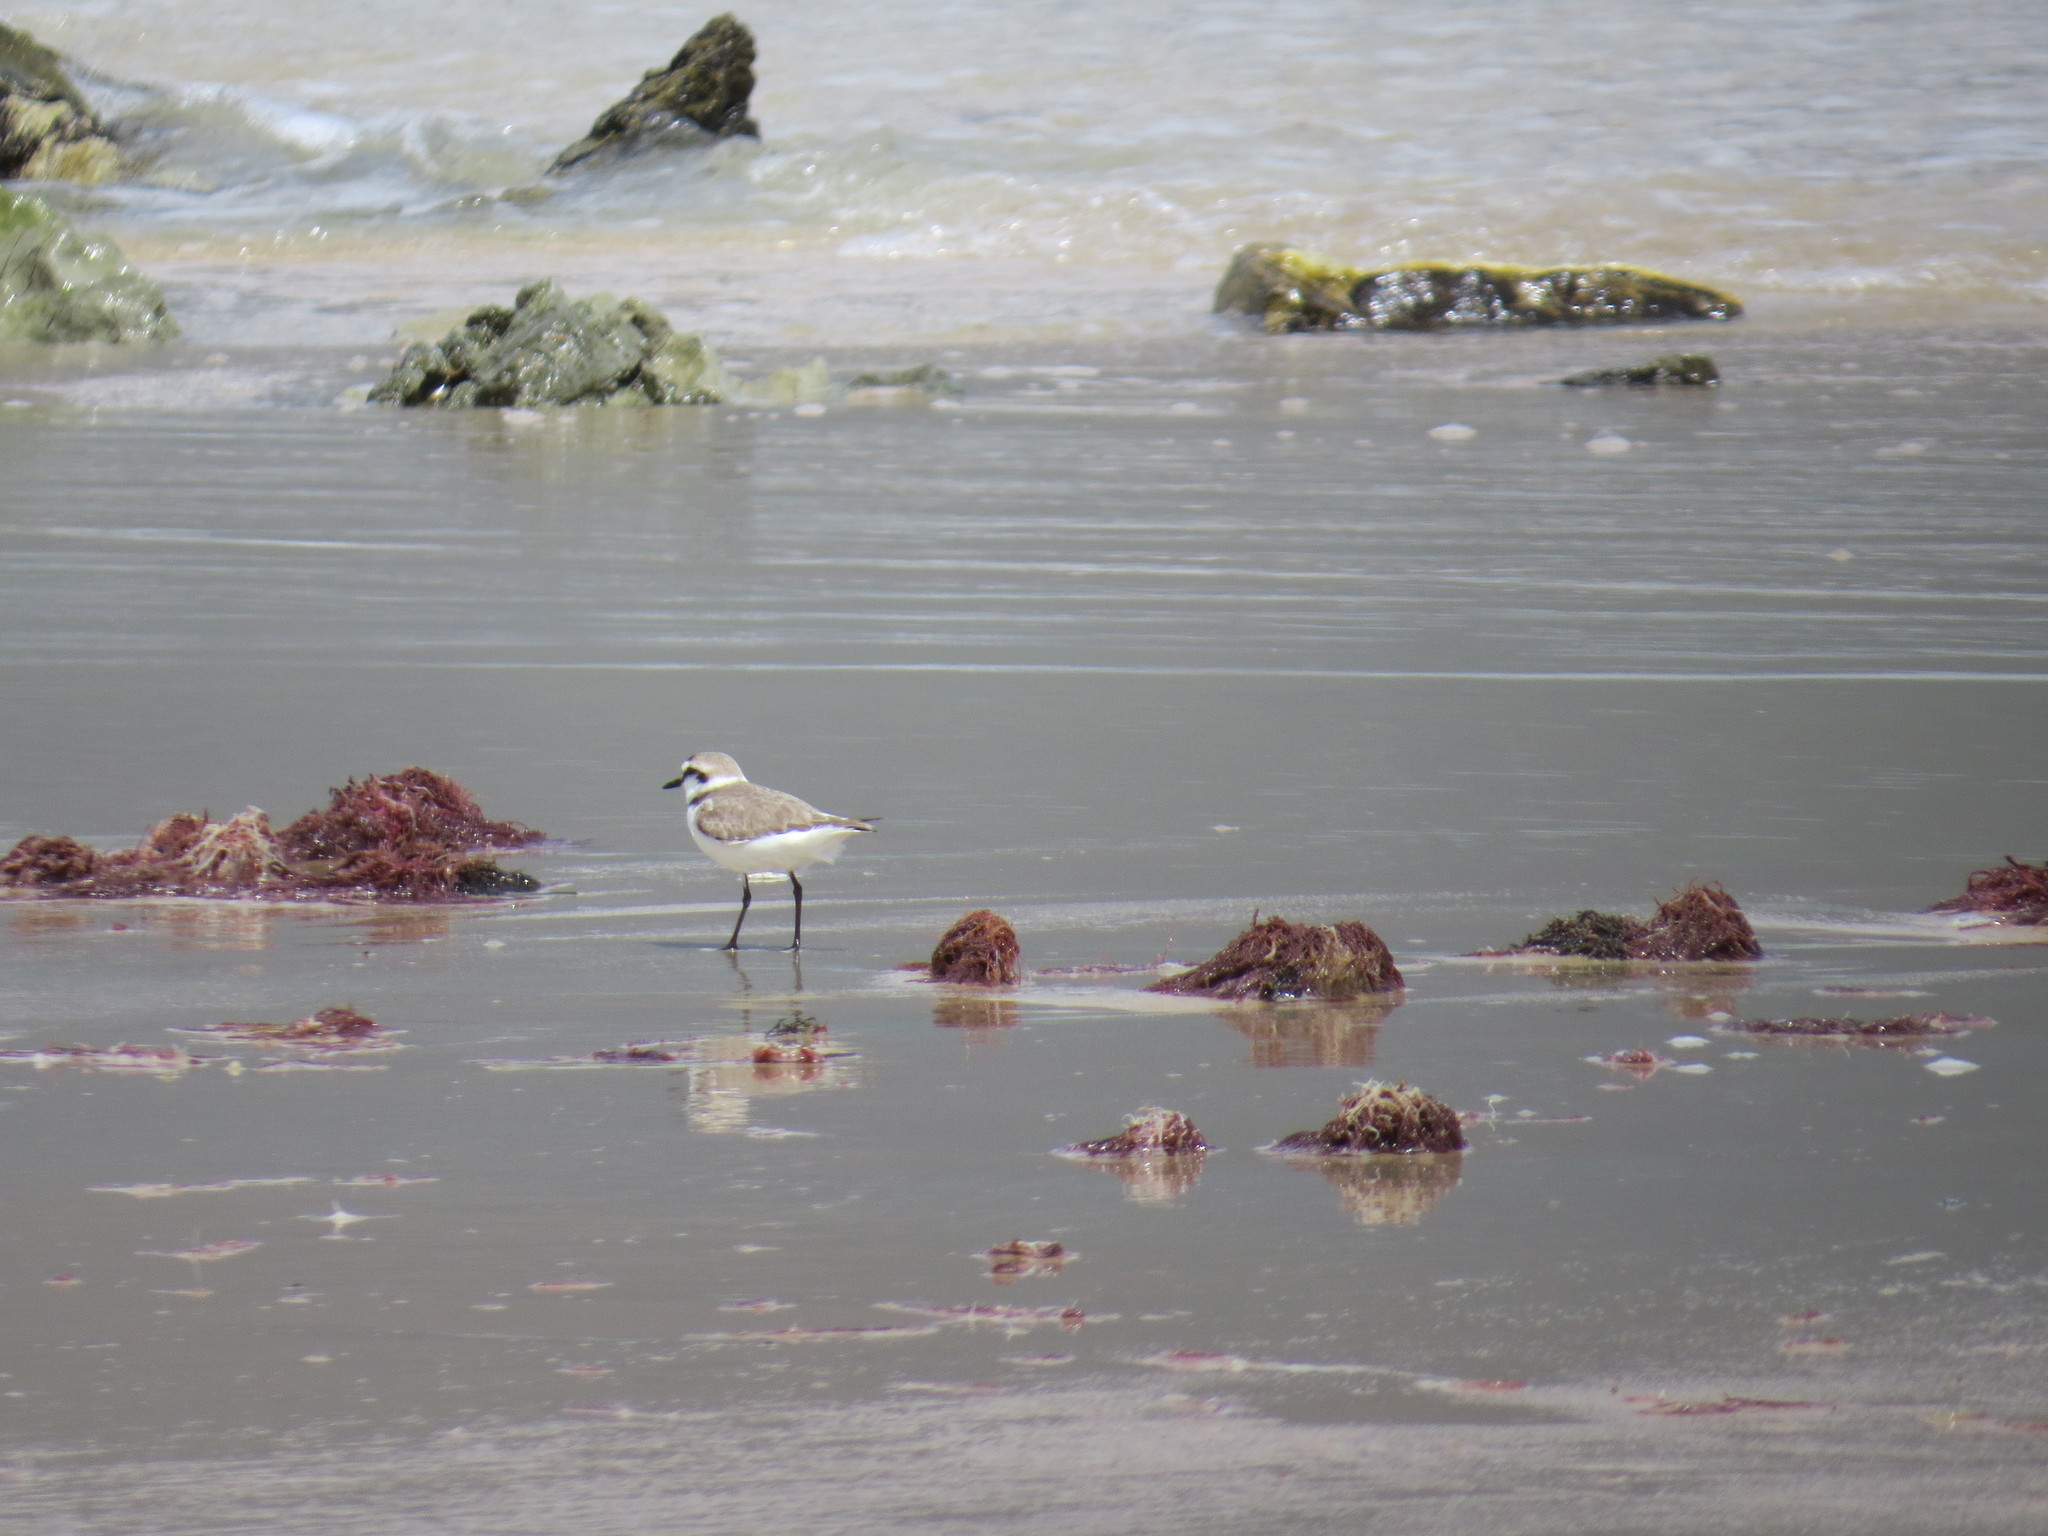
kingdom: Animalia
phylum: Chordata
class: Aves
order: Charadriiformes
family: Charadriidae
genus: Charadrius
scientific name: Charadrius alexandrinus
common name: Kentish plover
